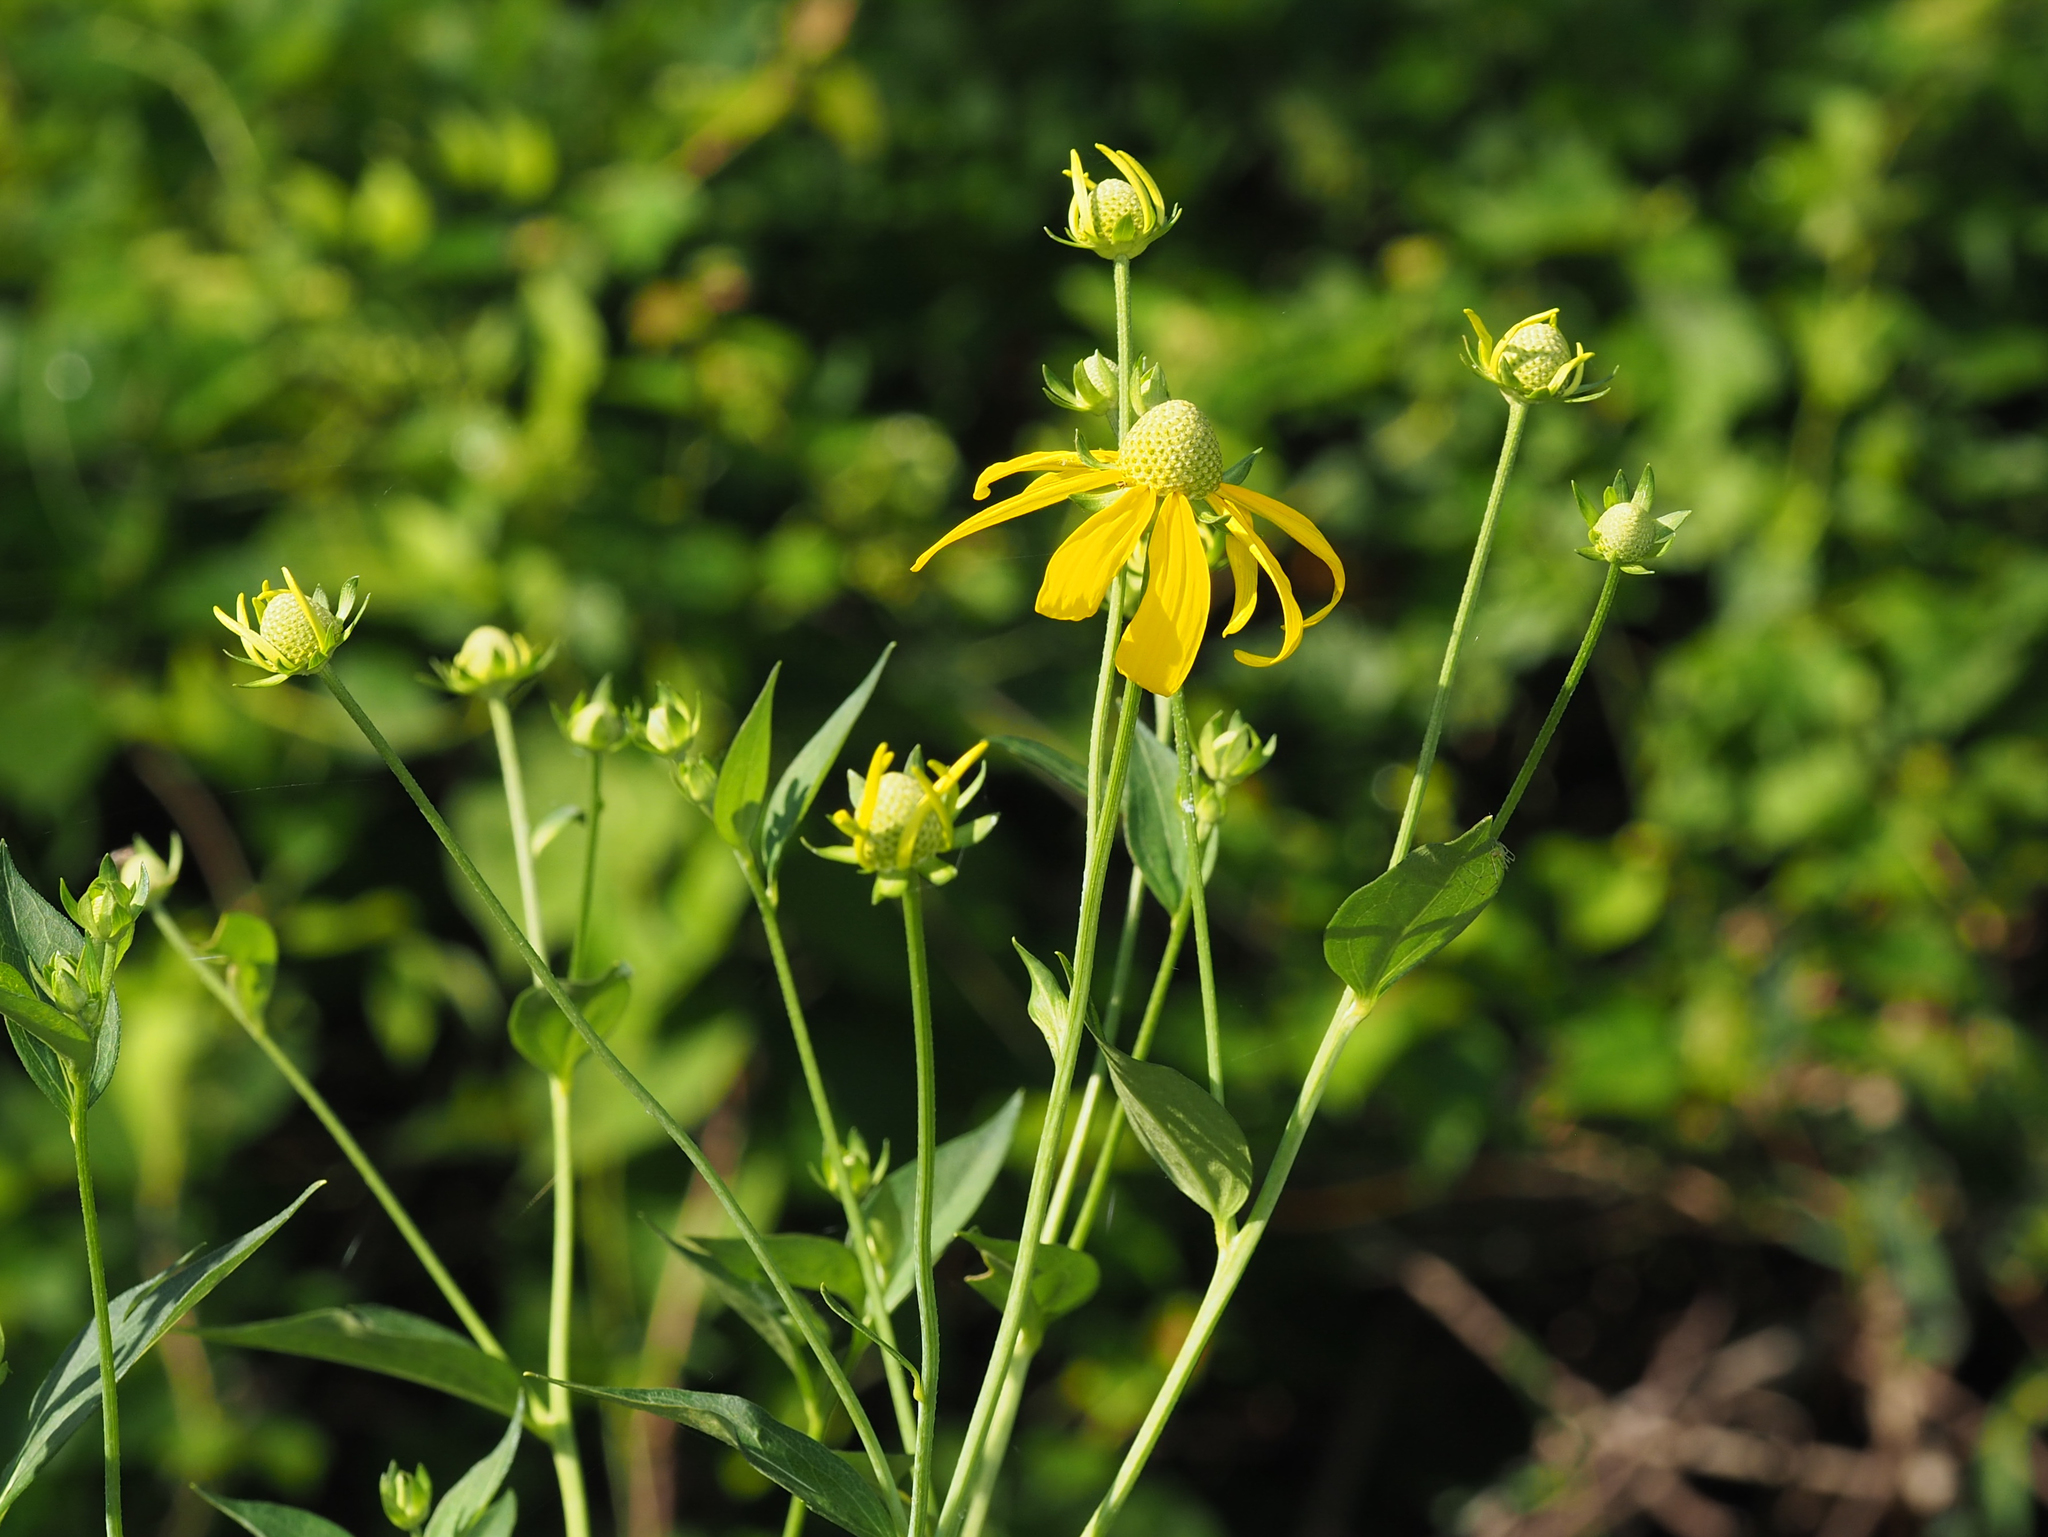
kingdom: Plantae
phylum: Tracheophyta
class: Magnoliopsida
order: Asterales
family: Asteraceae
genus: Rudbeckia
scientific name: Rudbeckia laciniata
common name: Coneflower
